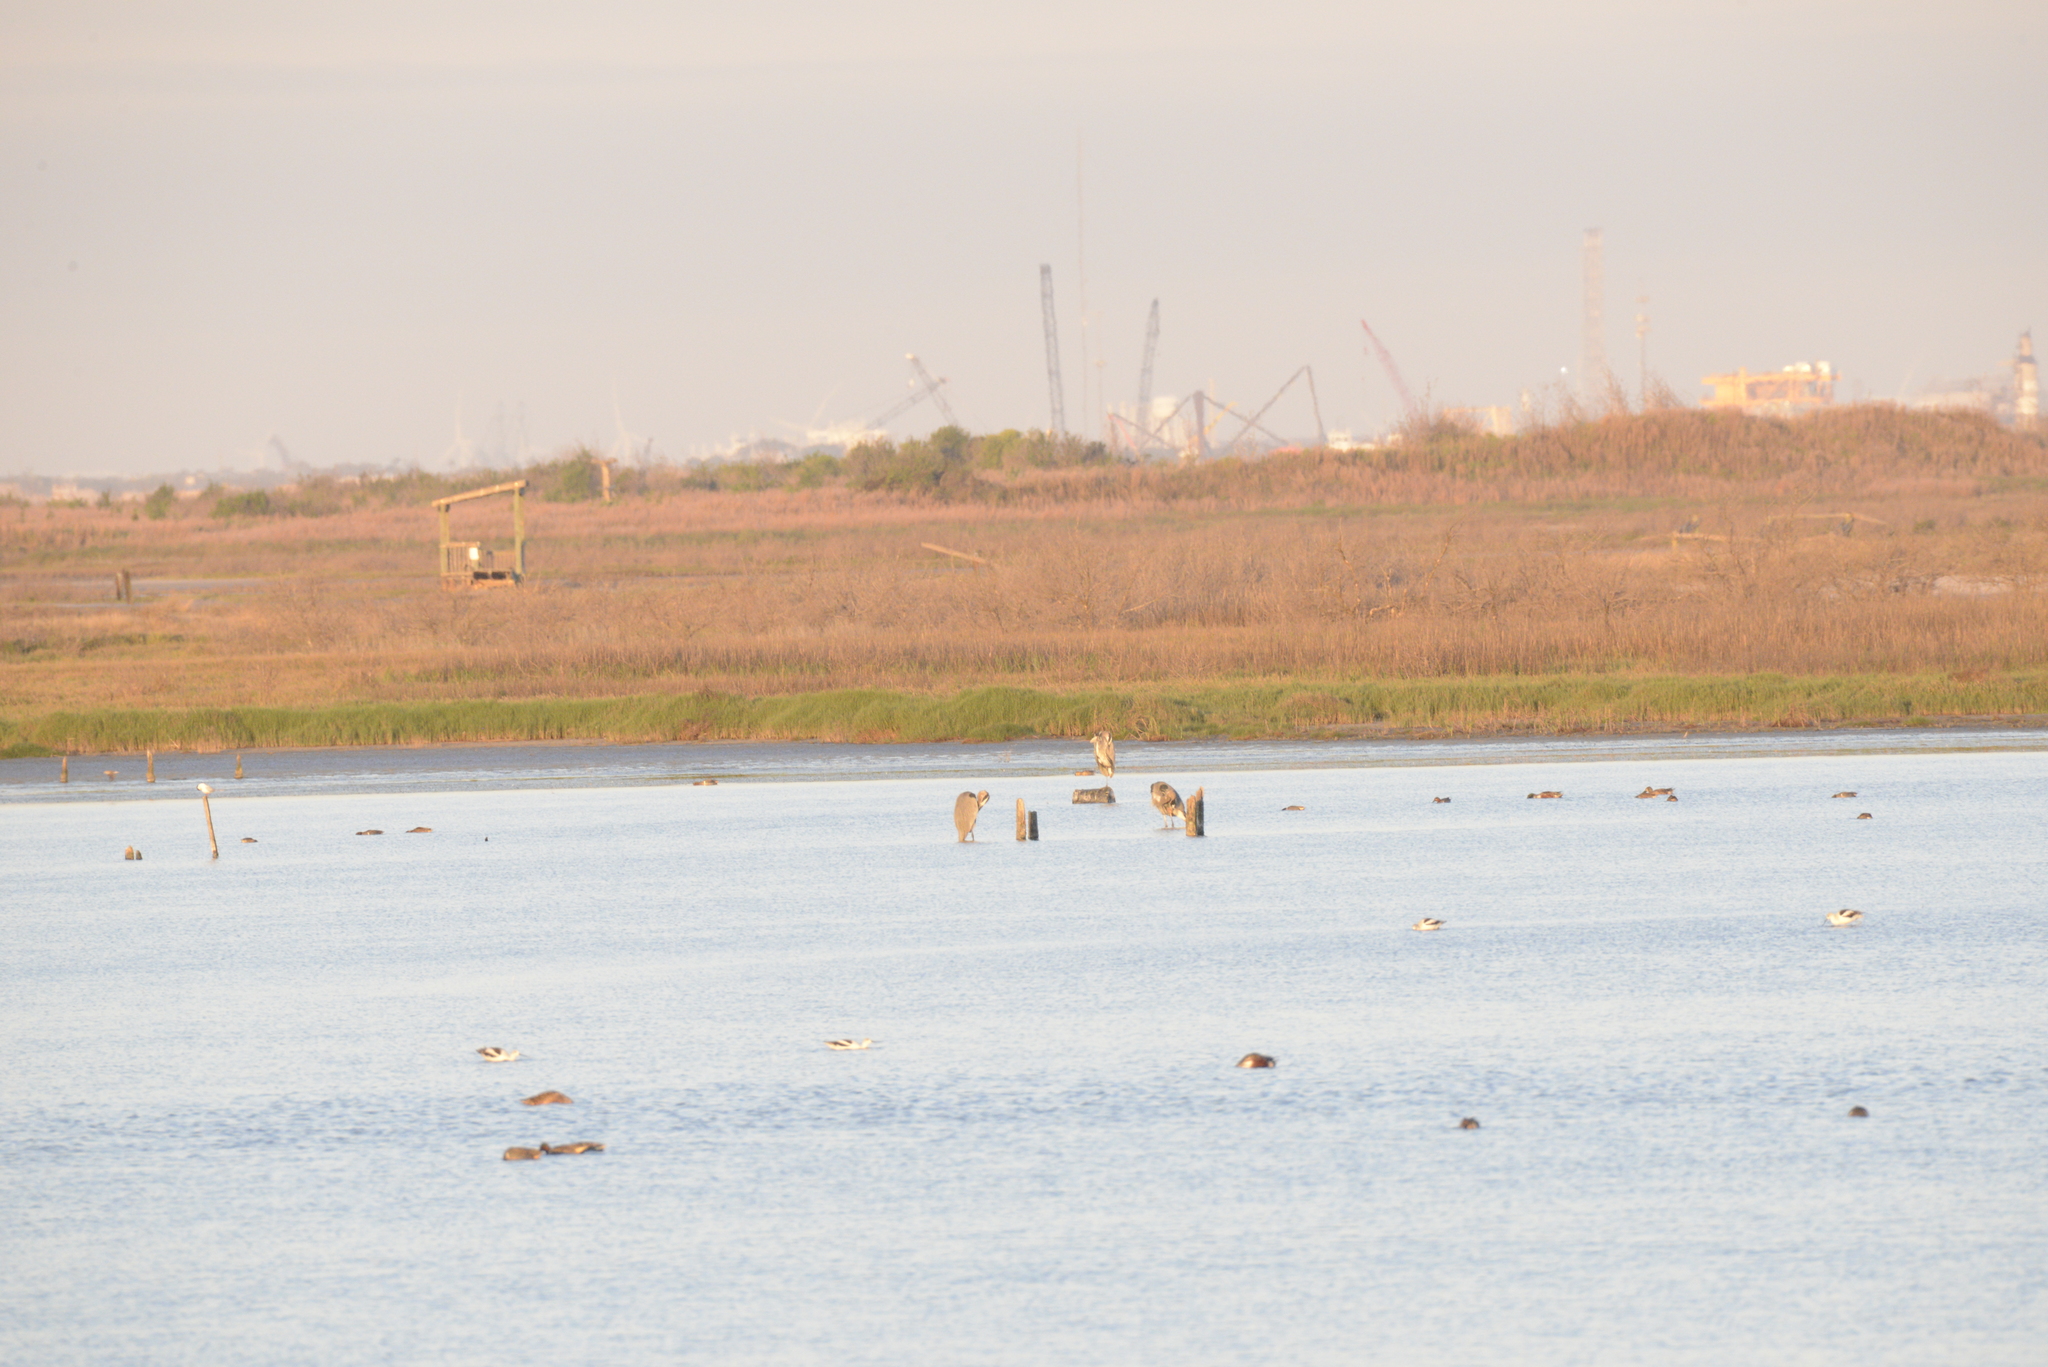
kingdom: Animalia
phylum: Chordata
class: Aves
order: Charadriiformes
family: Recurvirostridae
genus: Recurvirostra
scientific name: Recurvirostra americana
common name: American avocet
